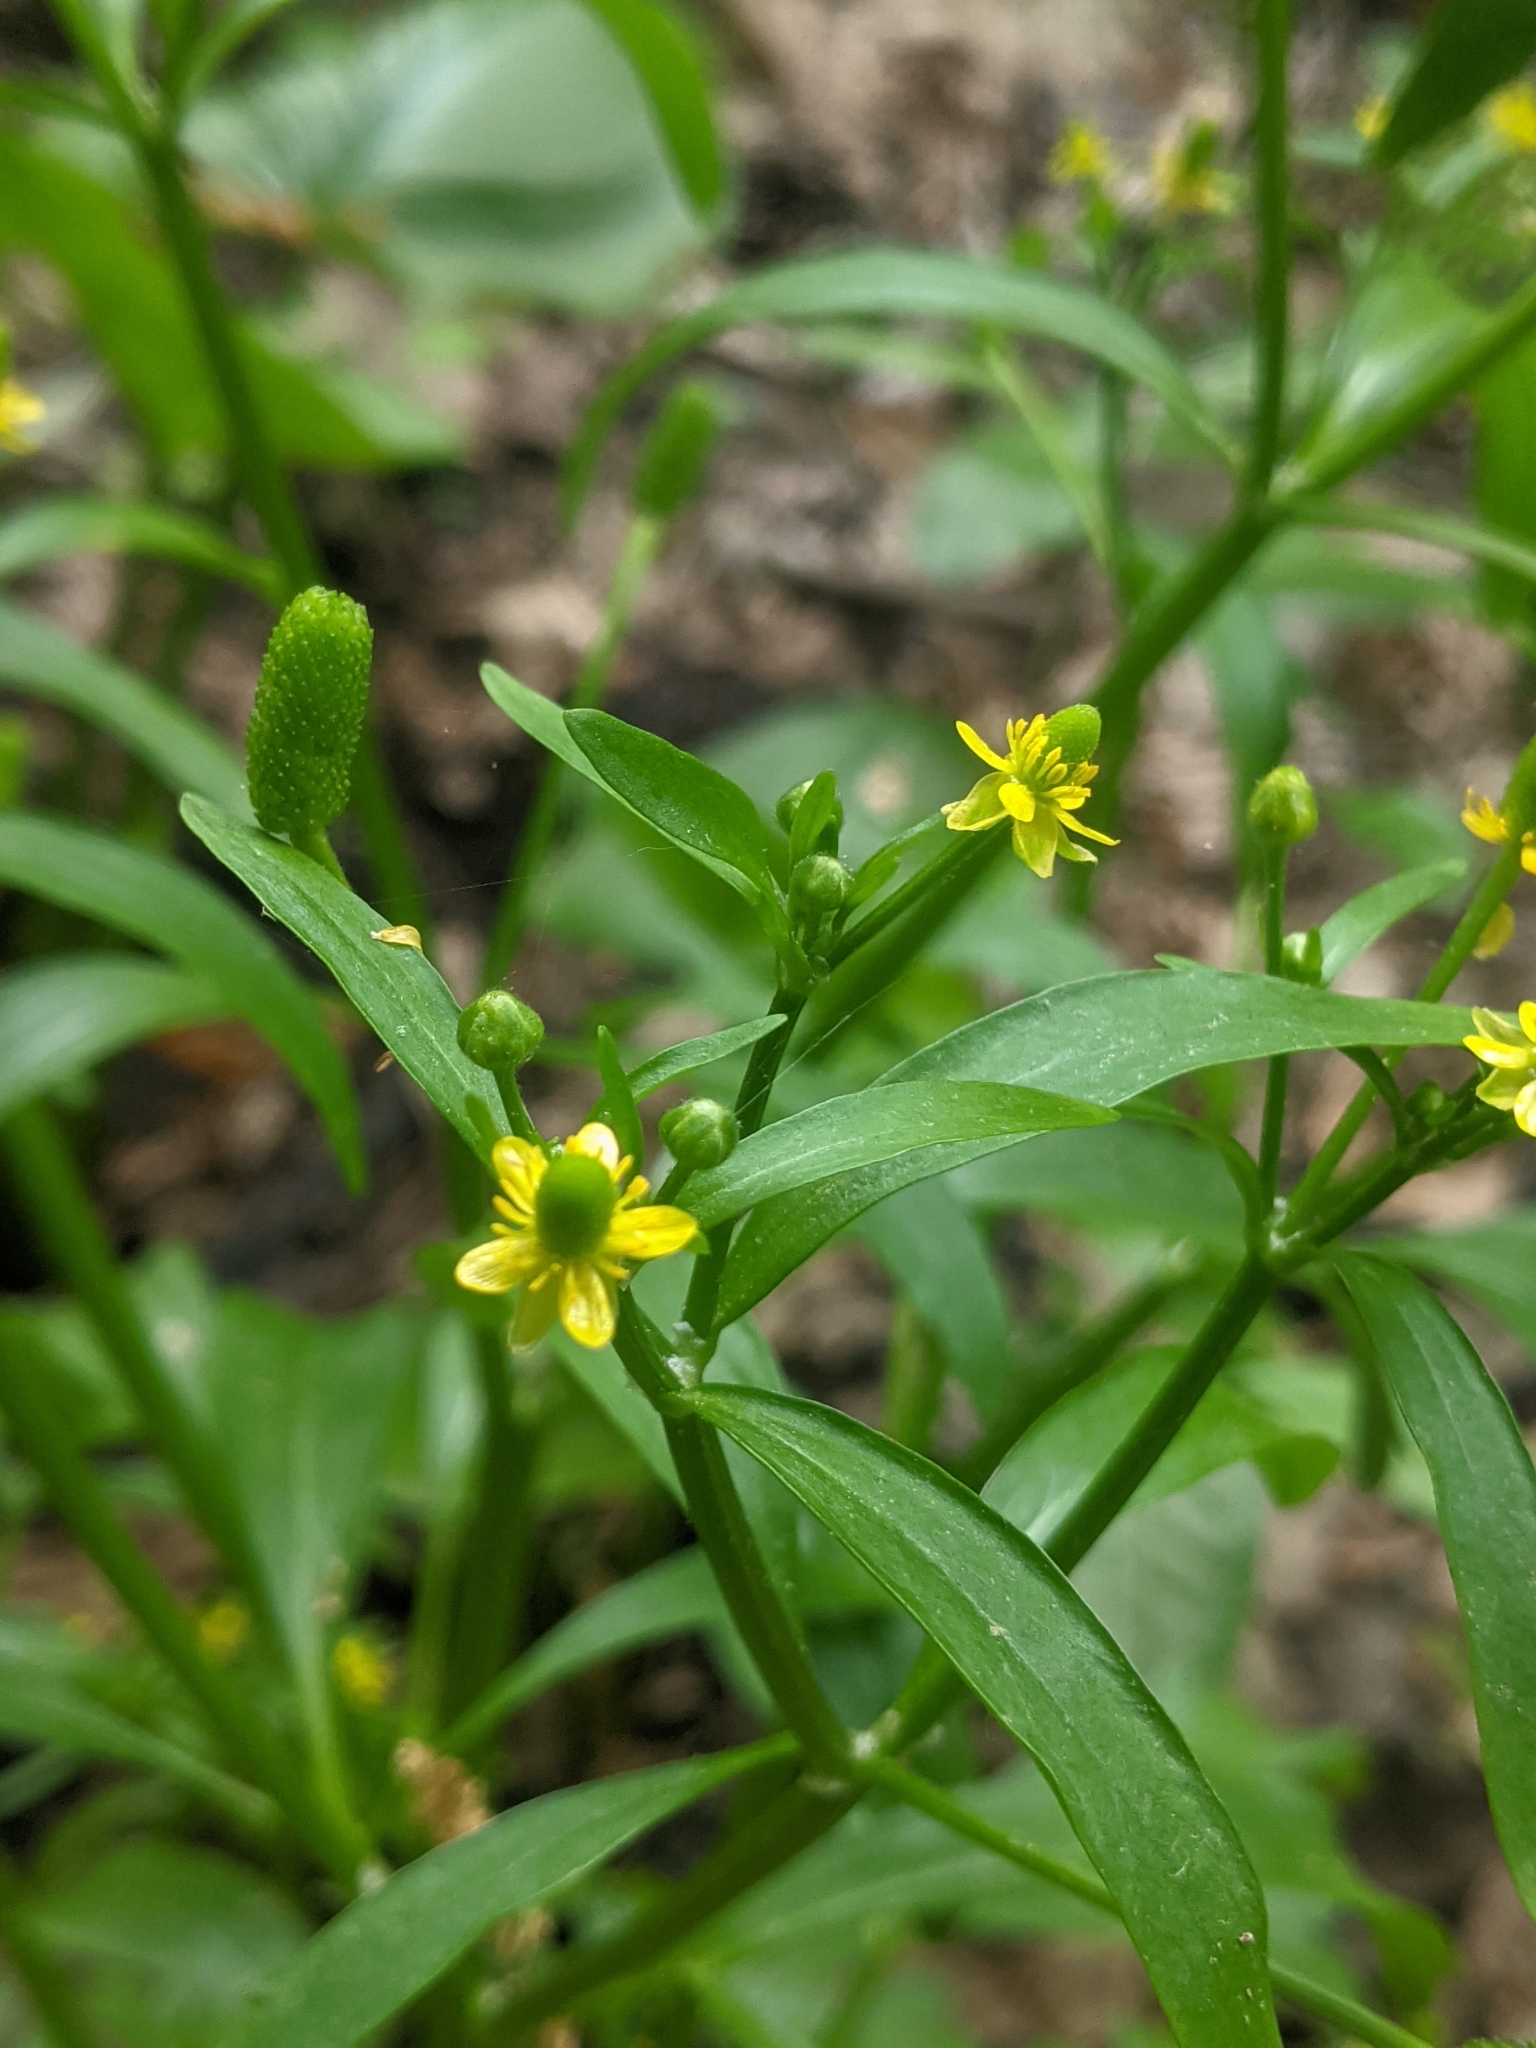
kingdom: Plantae
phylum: Tracheophyta
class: Magnoliopsida
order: Ranunculales
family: Ranunculaceae
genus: Ranunculus
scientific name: Ranunculus sceleratus
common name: Celery-leaved buttercup
